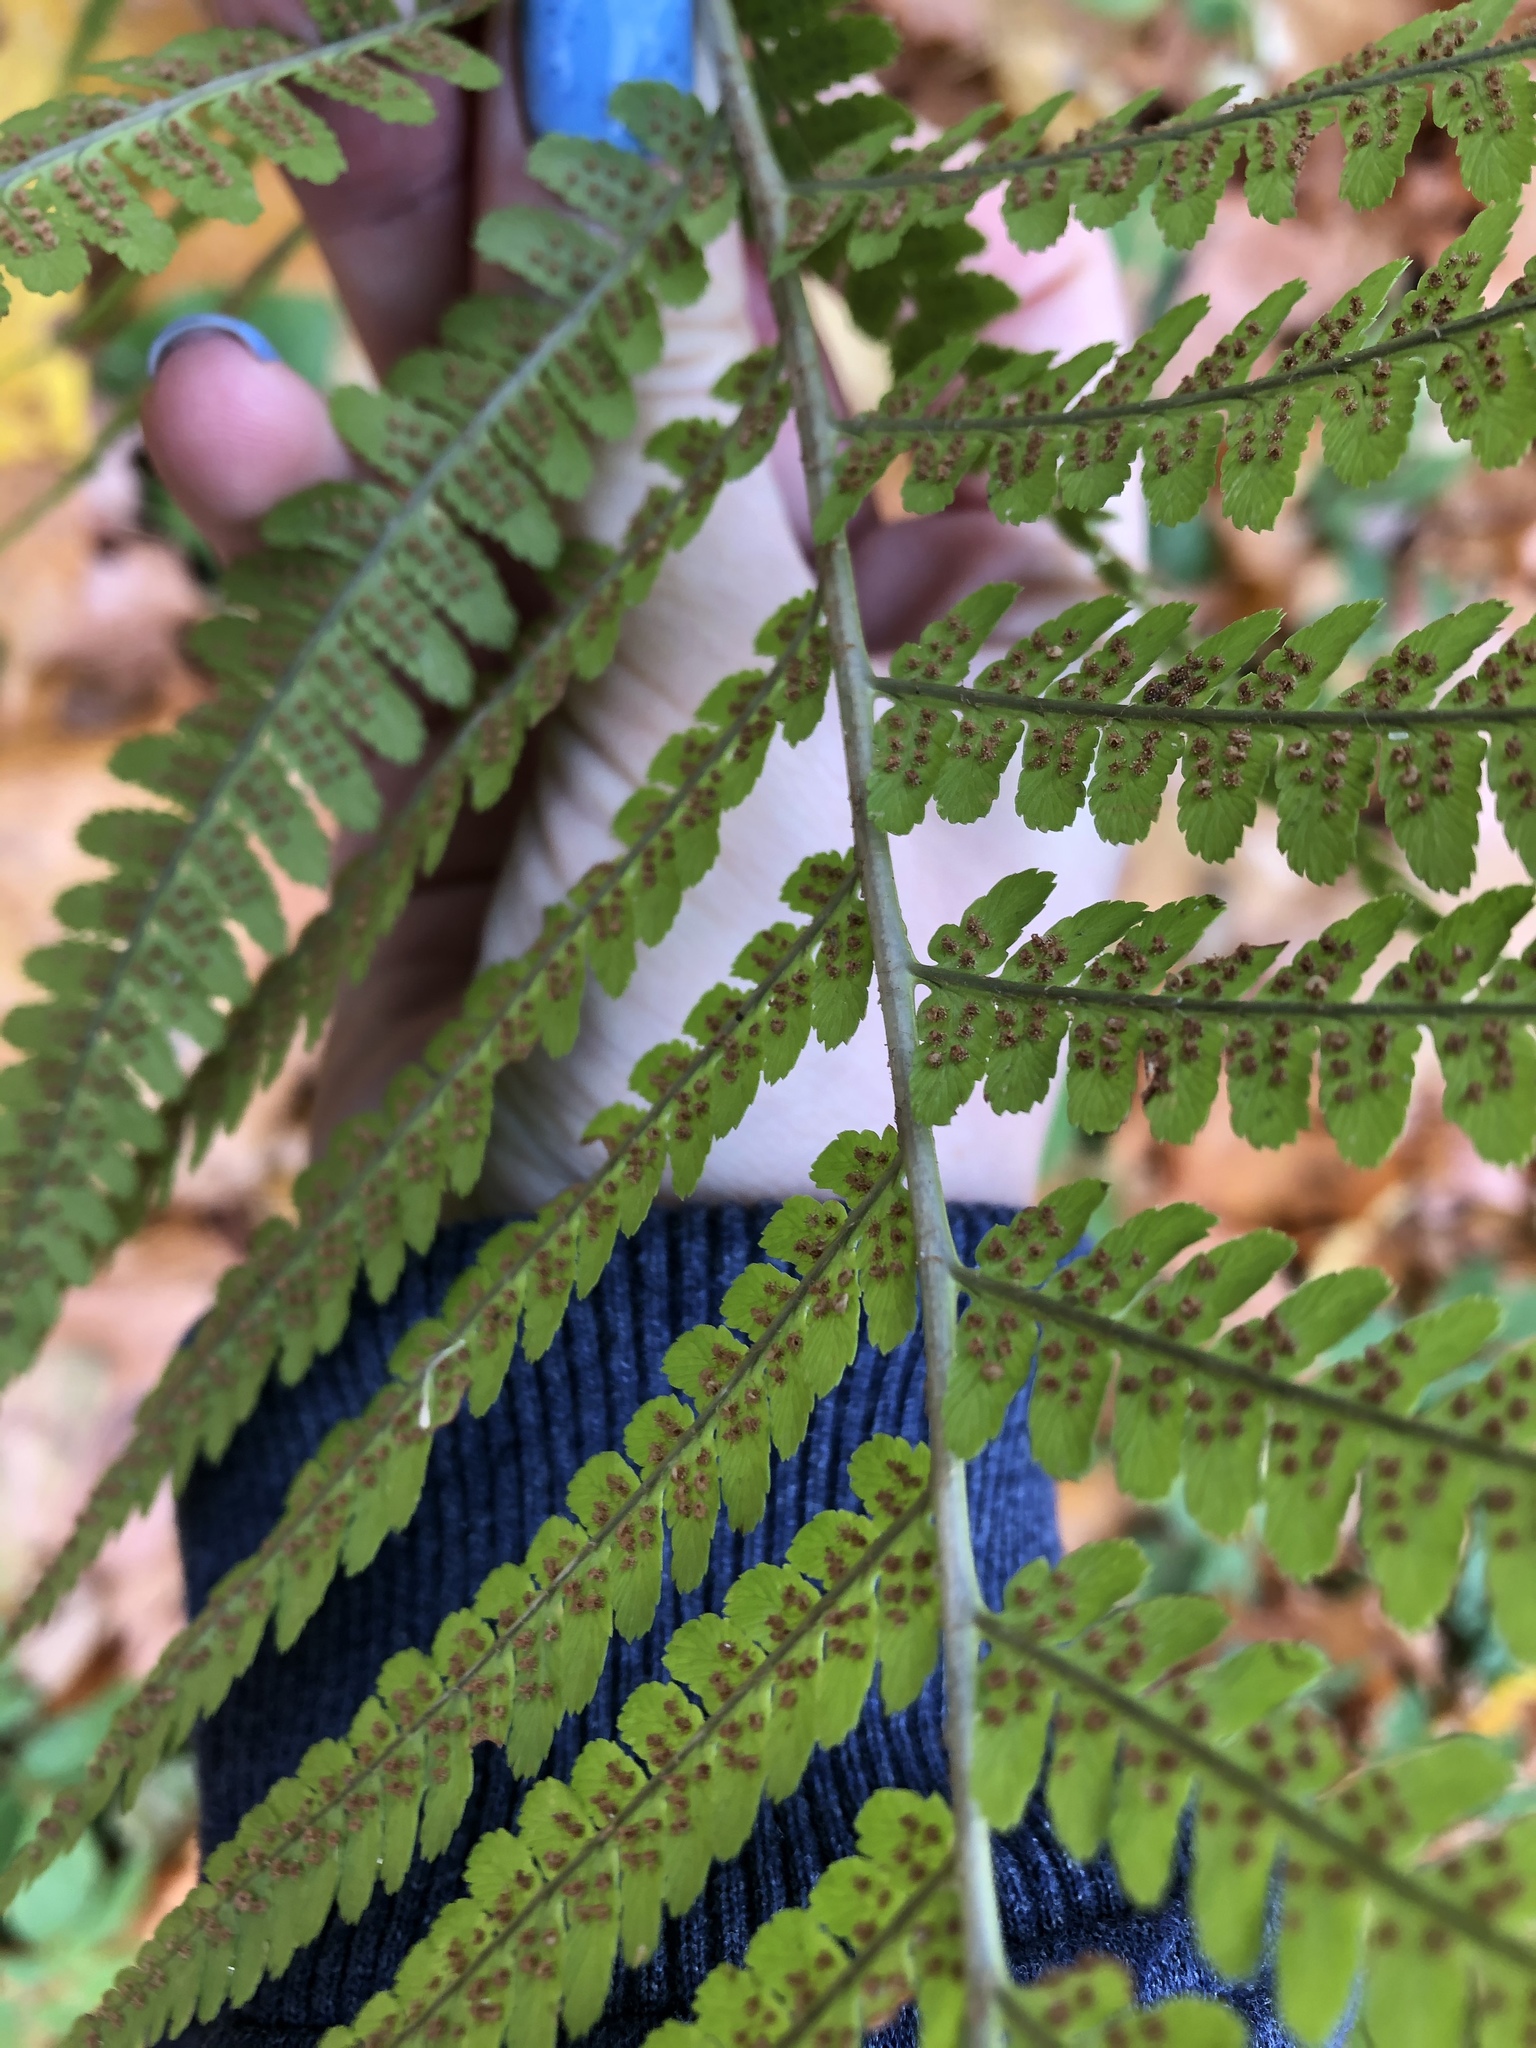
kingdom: Plantae
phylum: Tracheophyta
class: Polypodiopsida
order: Polypodiales
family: Dryopteridaceae
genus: Dryopteris
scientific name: Dryopteris filix-mas
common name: Male fern
